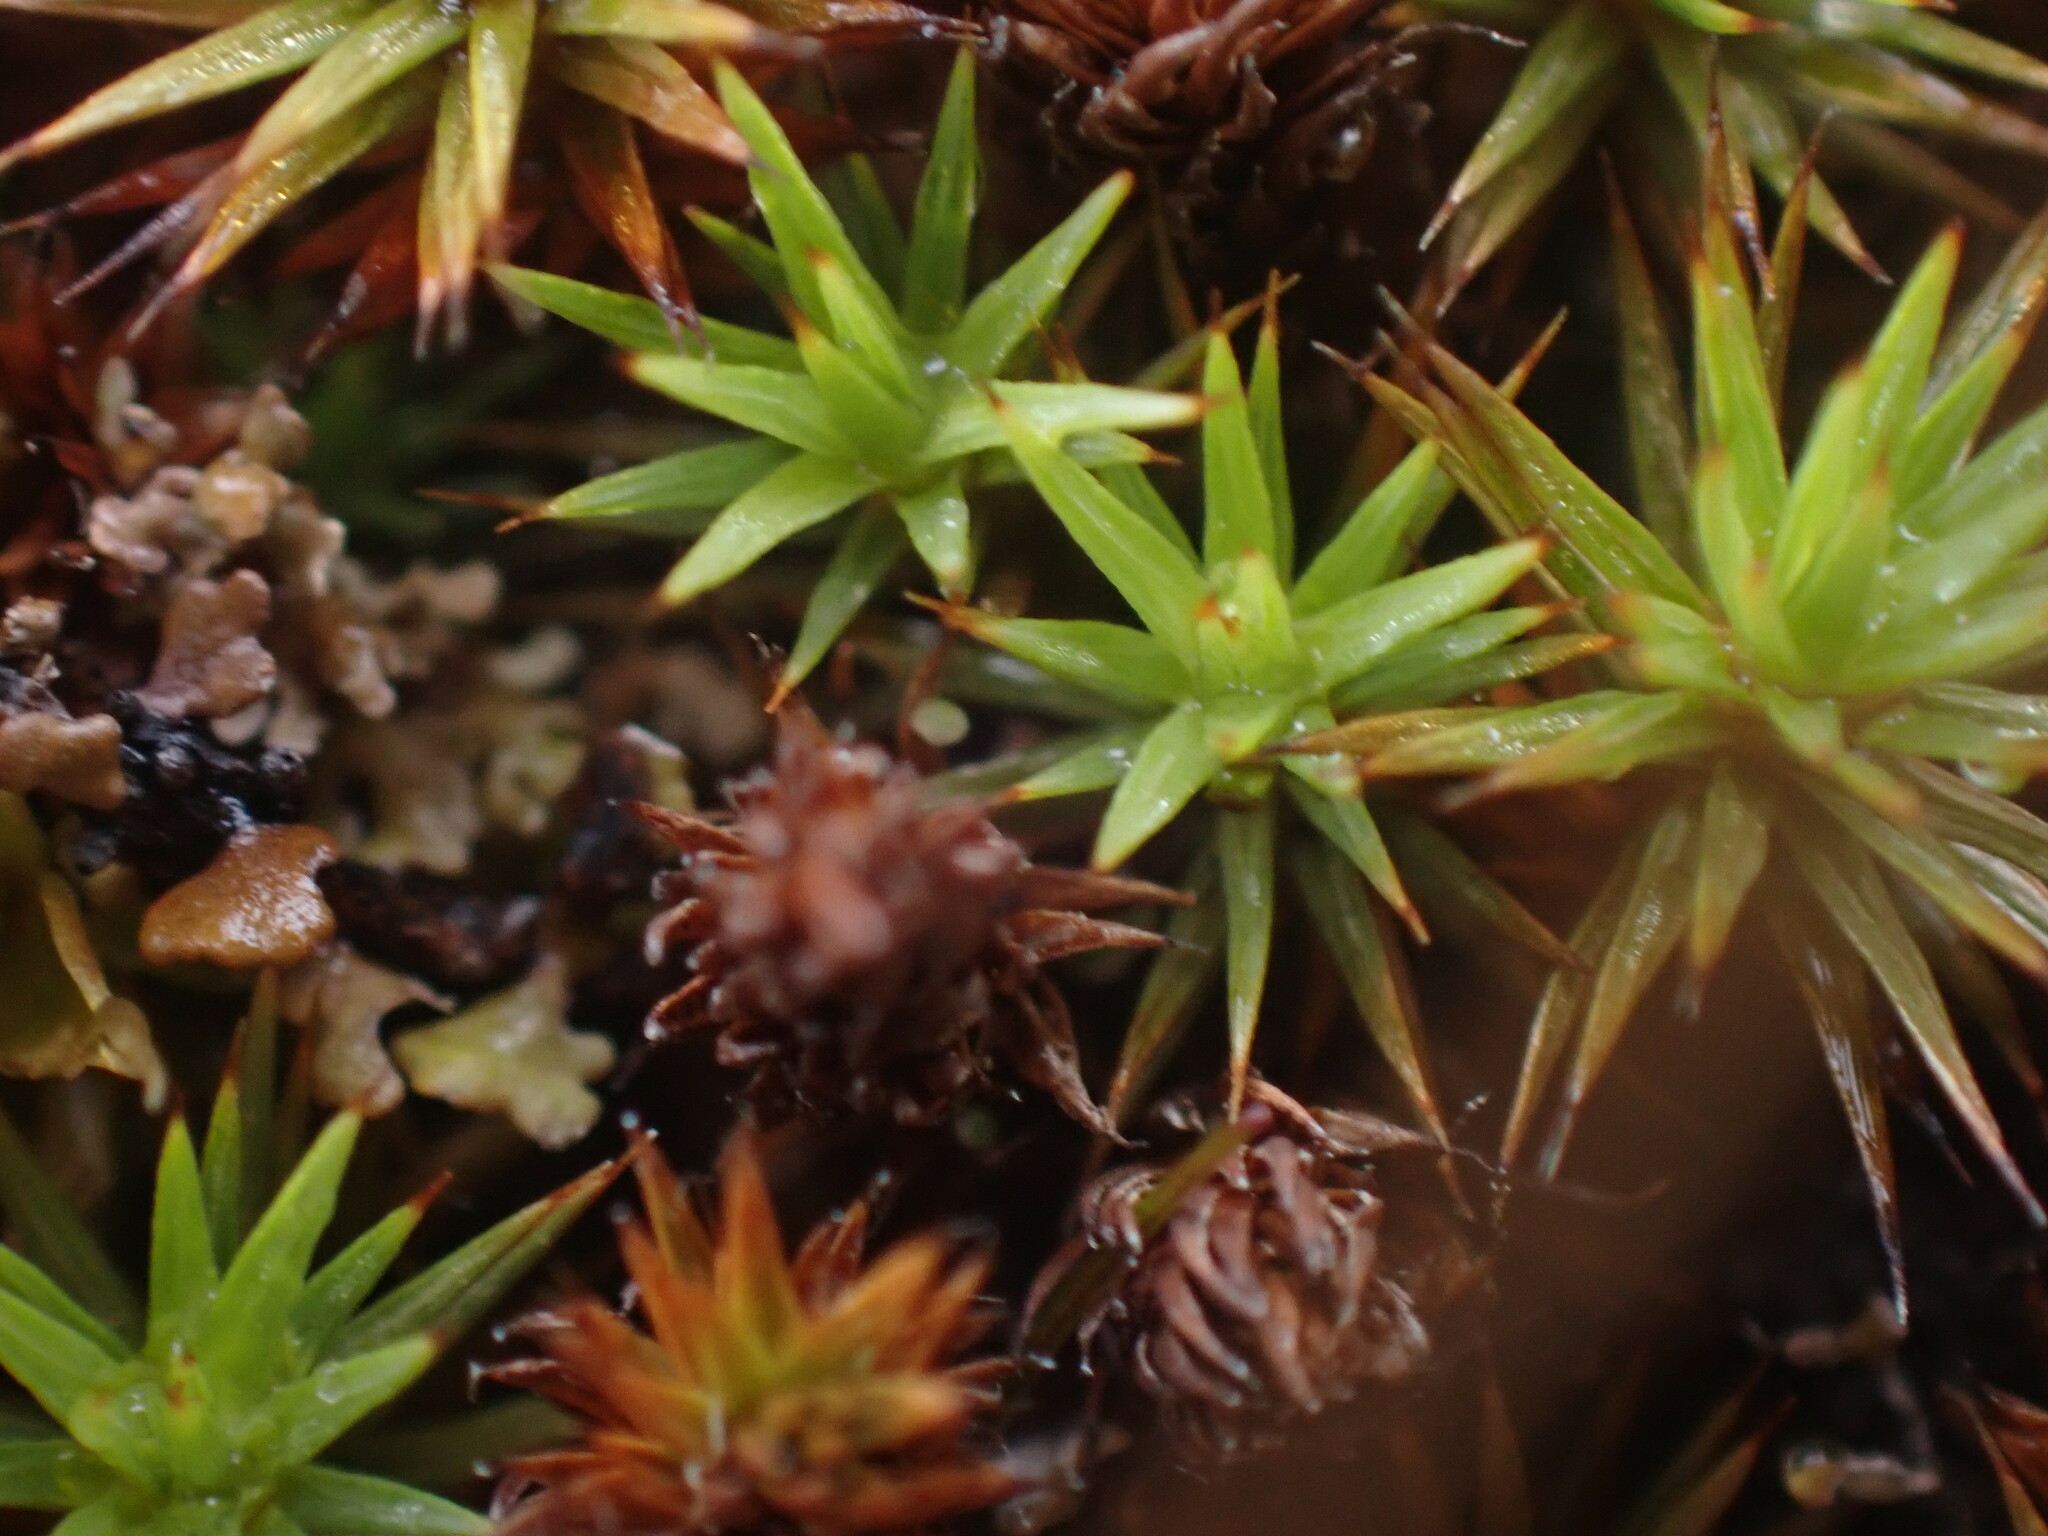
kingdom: Plantae
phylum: Bryophyta
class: Polytrichopsida
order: Polytrichales
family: Polytrichaceae
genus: Polytrichum
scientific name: Polytrichum juniperinum
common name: Juniper haircap moss
